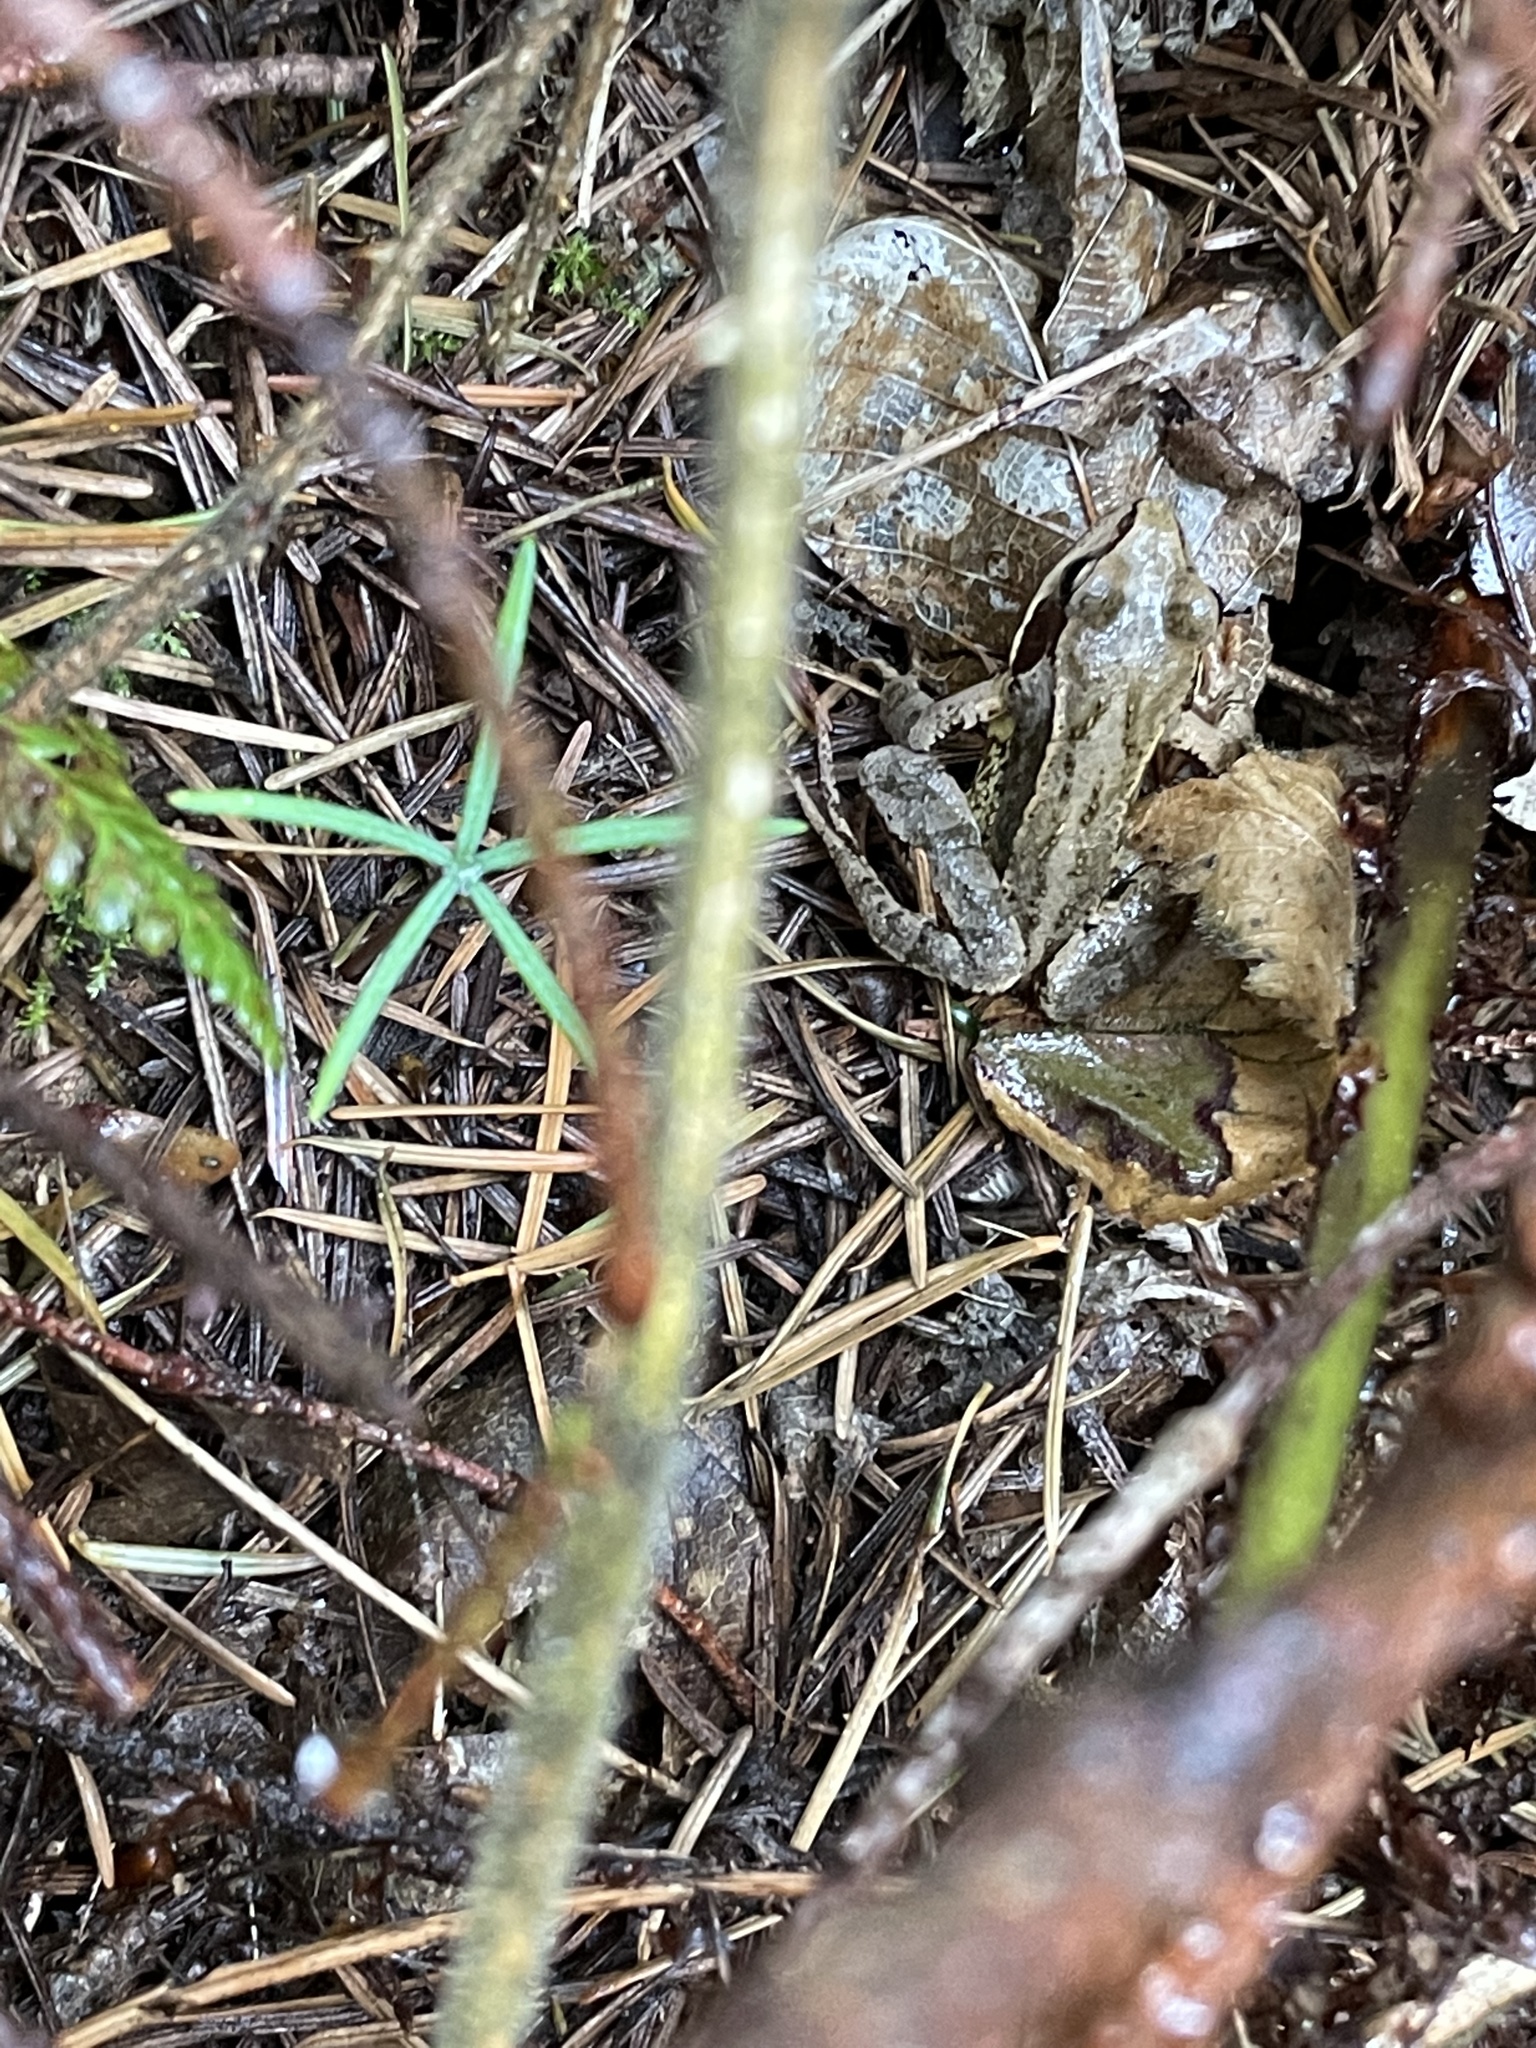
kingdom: Animalia
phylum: Chordata
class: Amphibia
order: Anura
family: Ranidae
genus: Rana
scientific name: Rana temporaria
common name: Common frog
